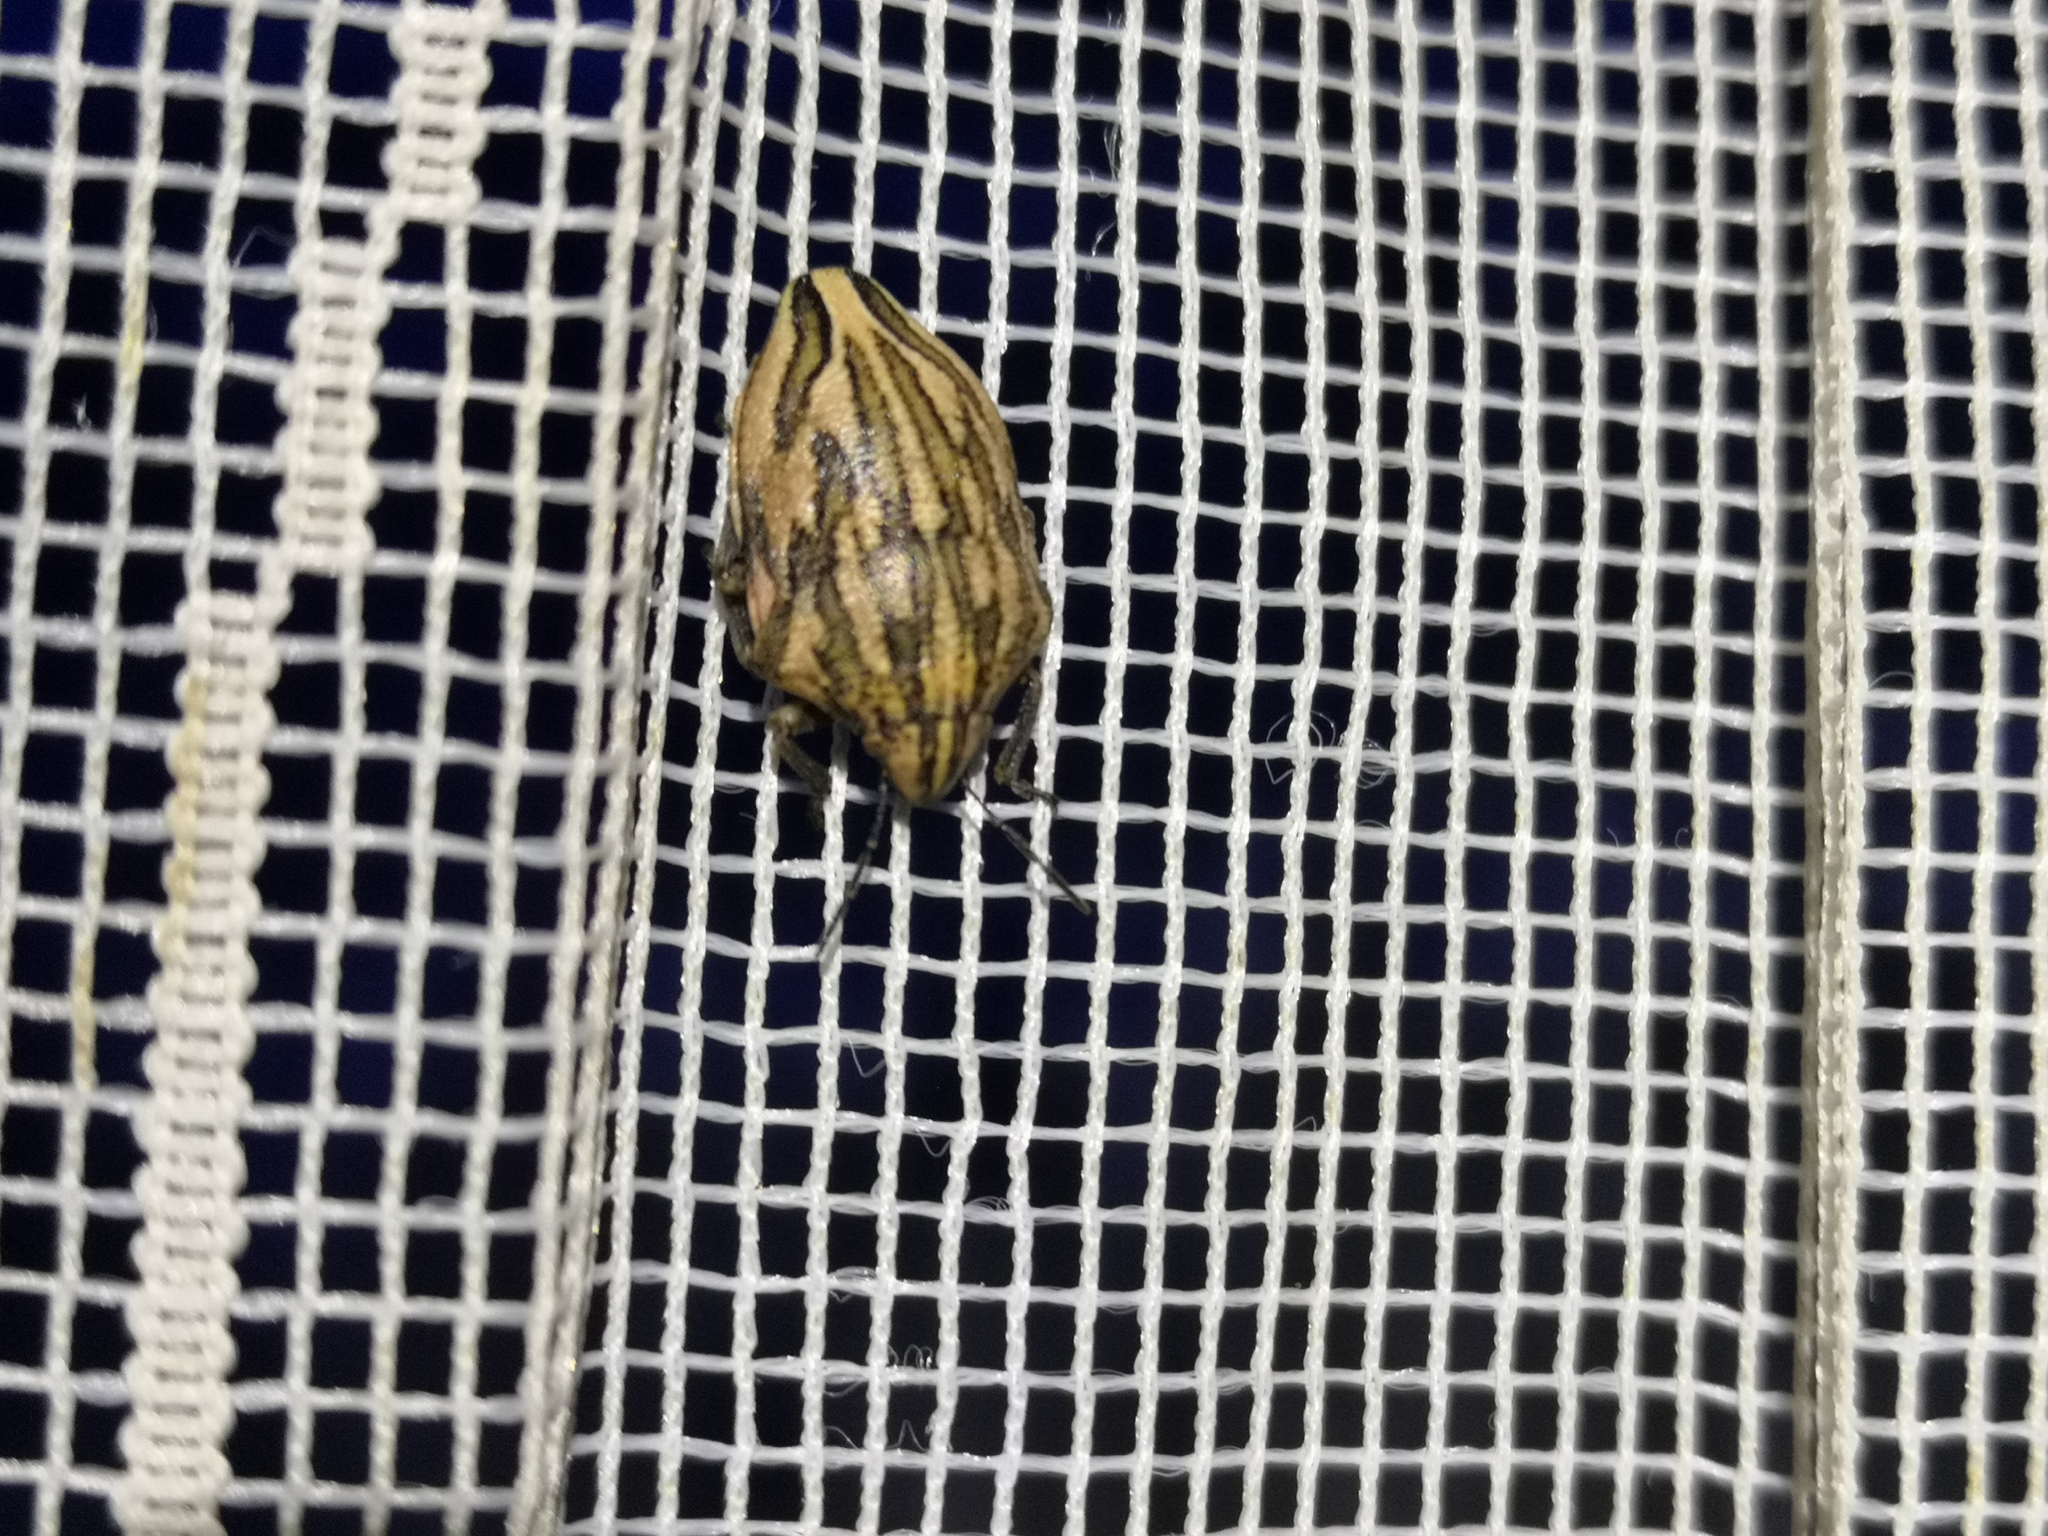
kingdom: Animalia
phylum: Arthropoda
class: Insecta
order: Hemiptera
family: Scutelleridae
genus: Odontotarsus
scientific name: Odontotarsus purpureolineatus
